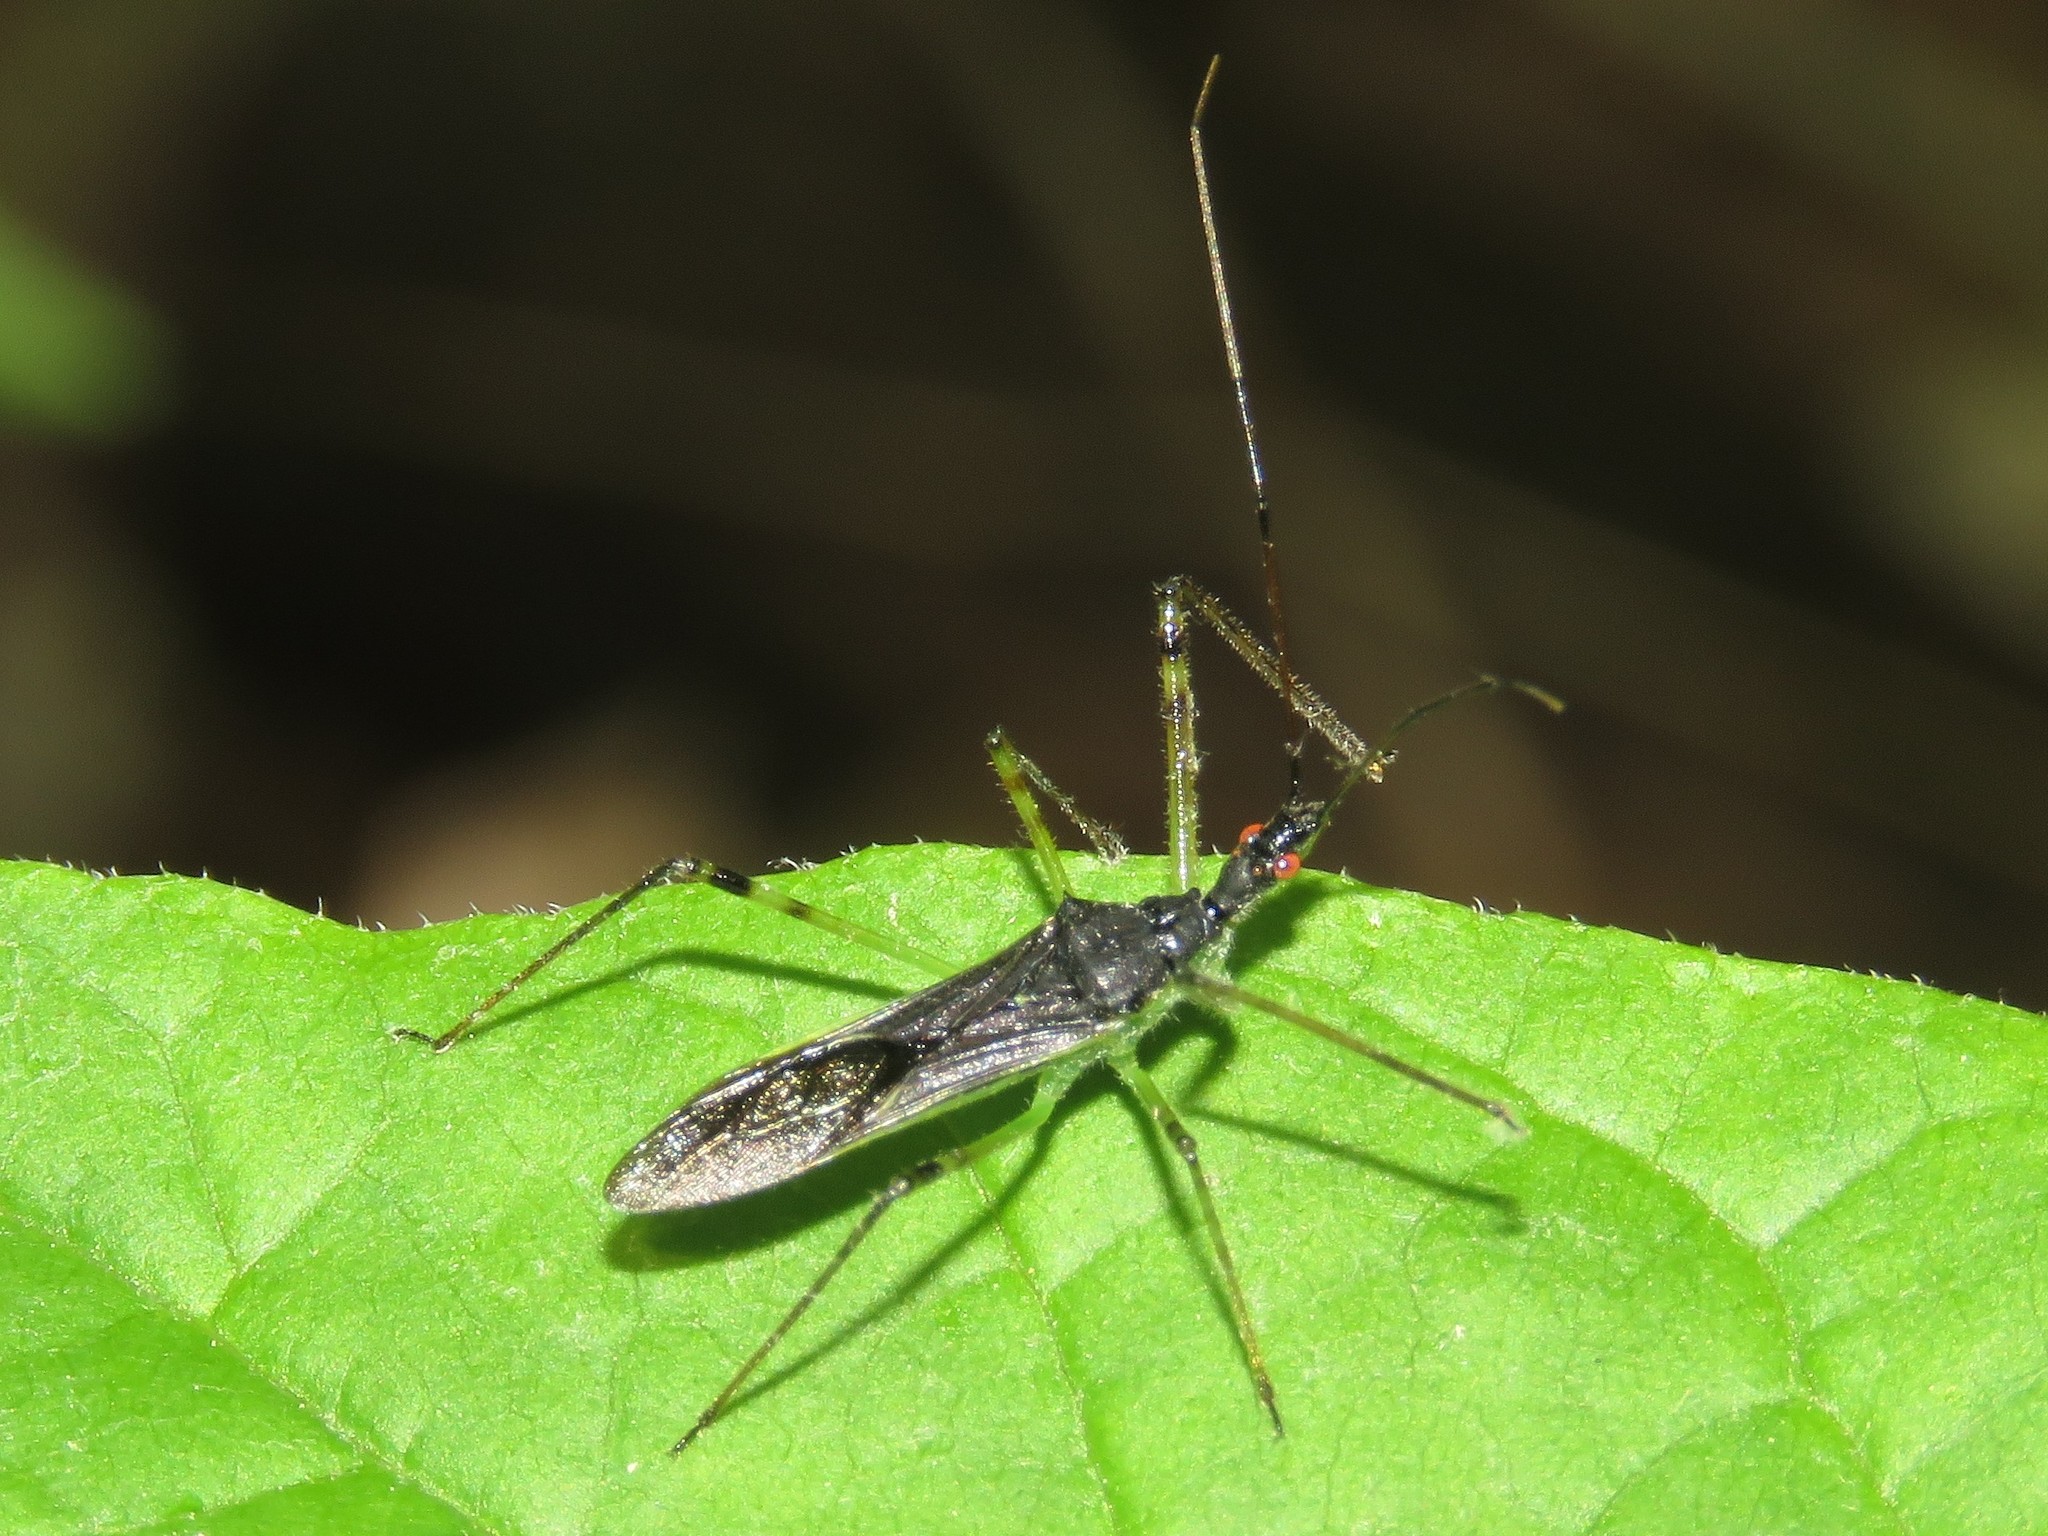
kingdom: Animalia
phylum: Arthropoda
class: Insecta
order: Hemiptera
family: Reduviidae
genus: Zelus
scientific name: Zelus luridus
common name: Pale green assassin bug
